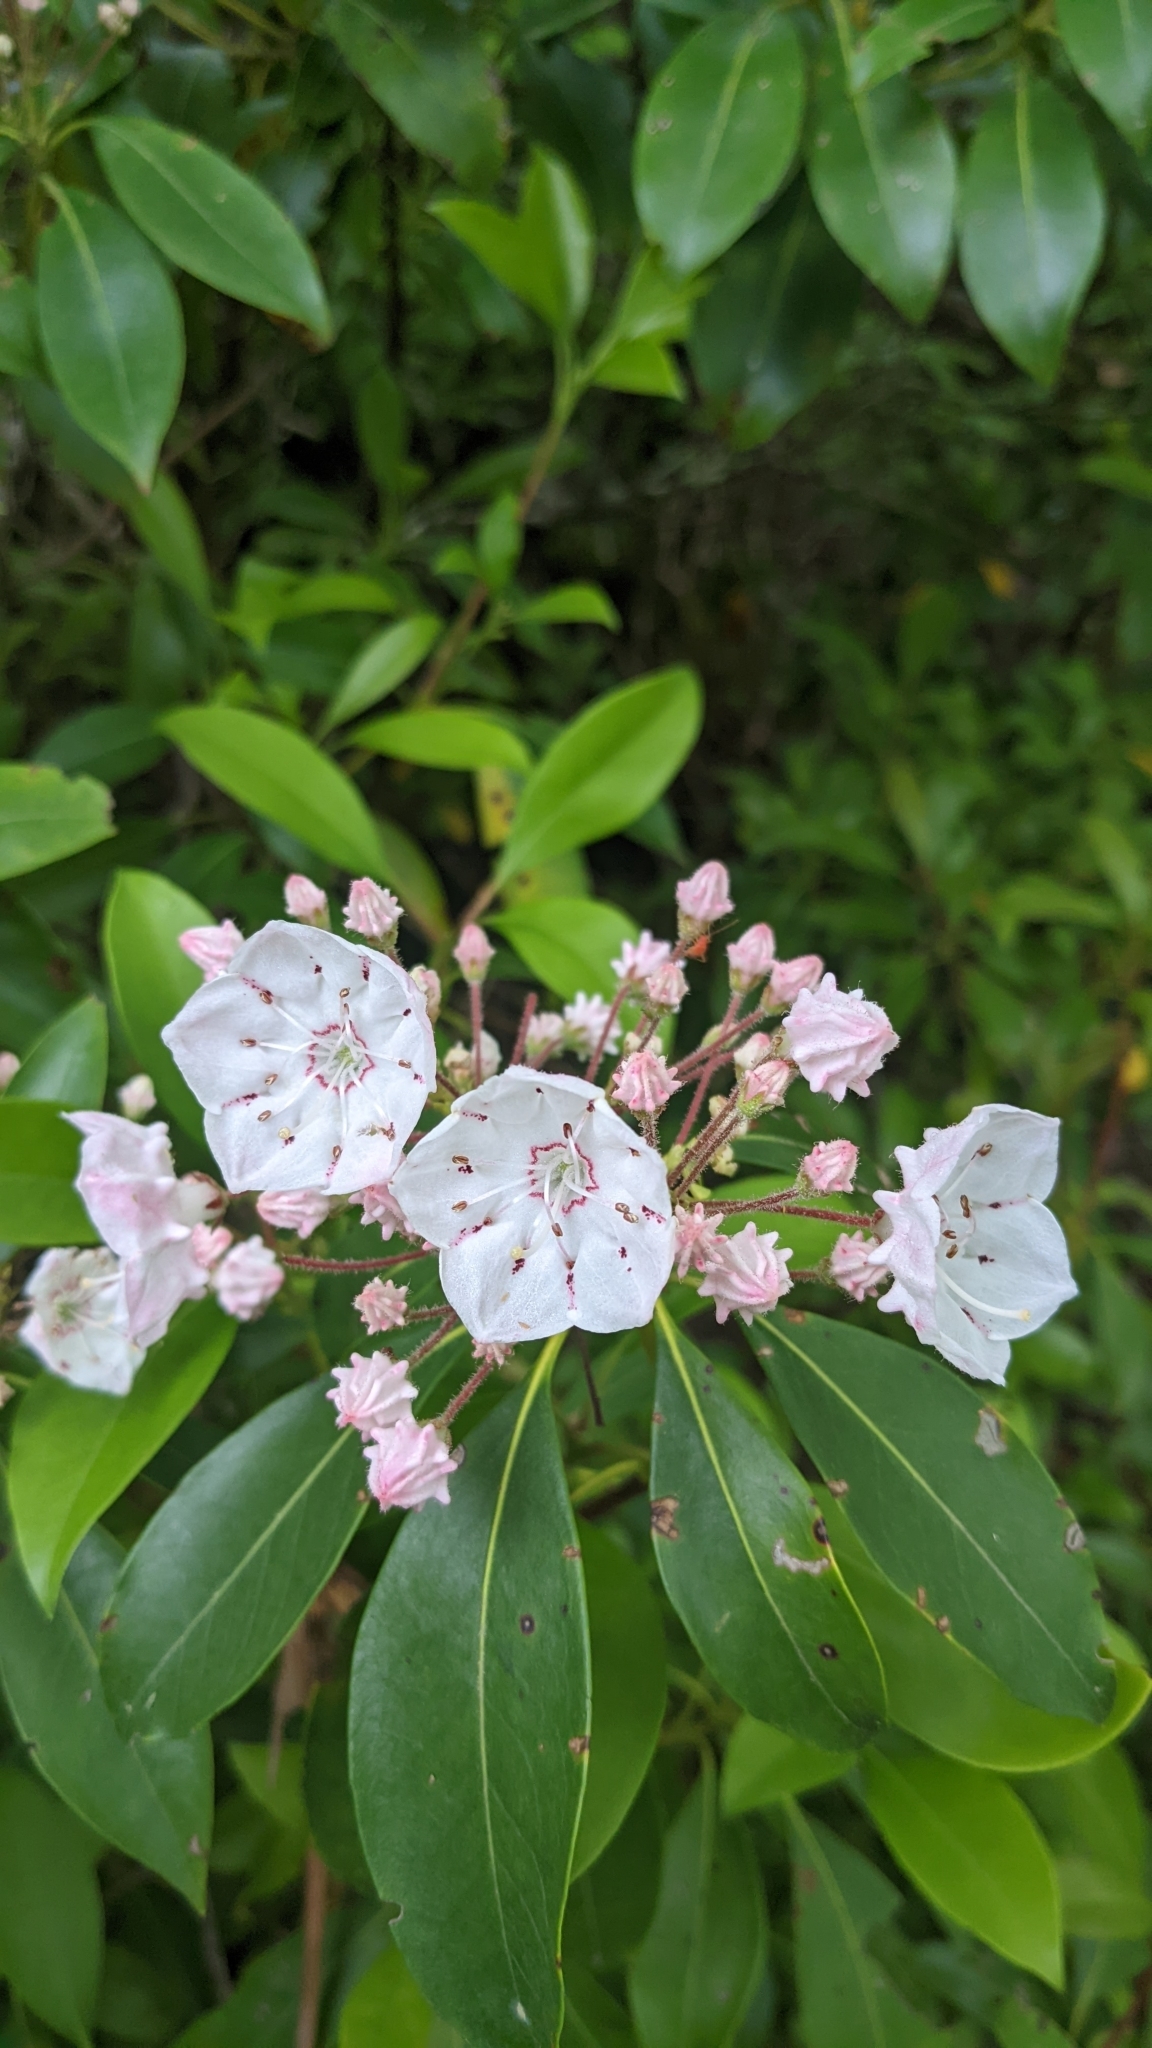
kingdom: Plantae
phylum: Tracheophyta
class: Magnoliopsida
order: Ericales
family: Ericaceae
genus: Kalmia
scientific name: Kalmia latifolia
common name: Mountain-laurel
